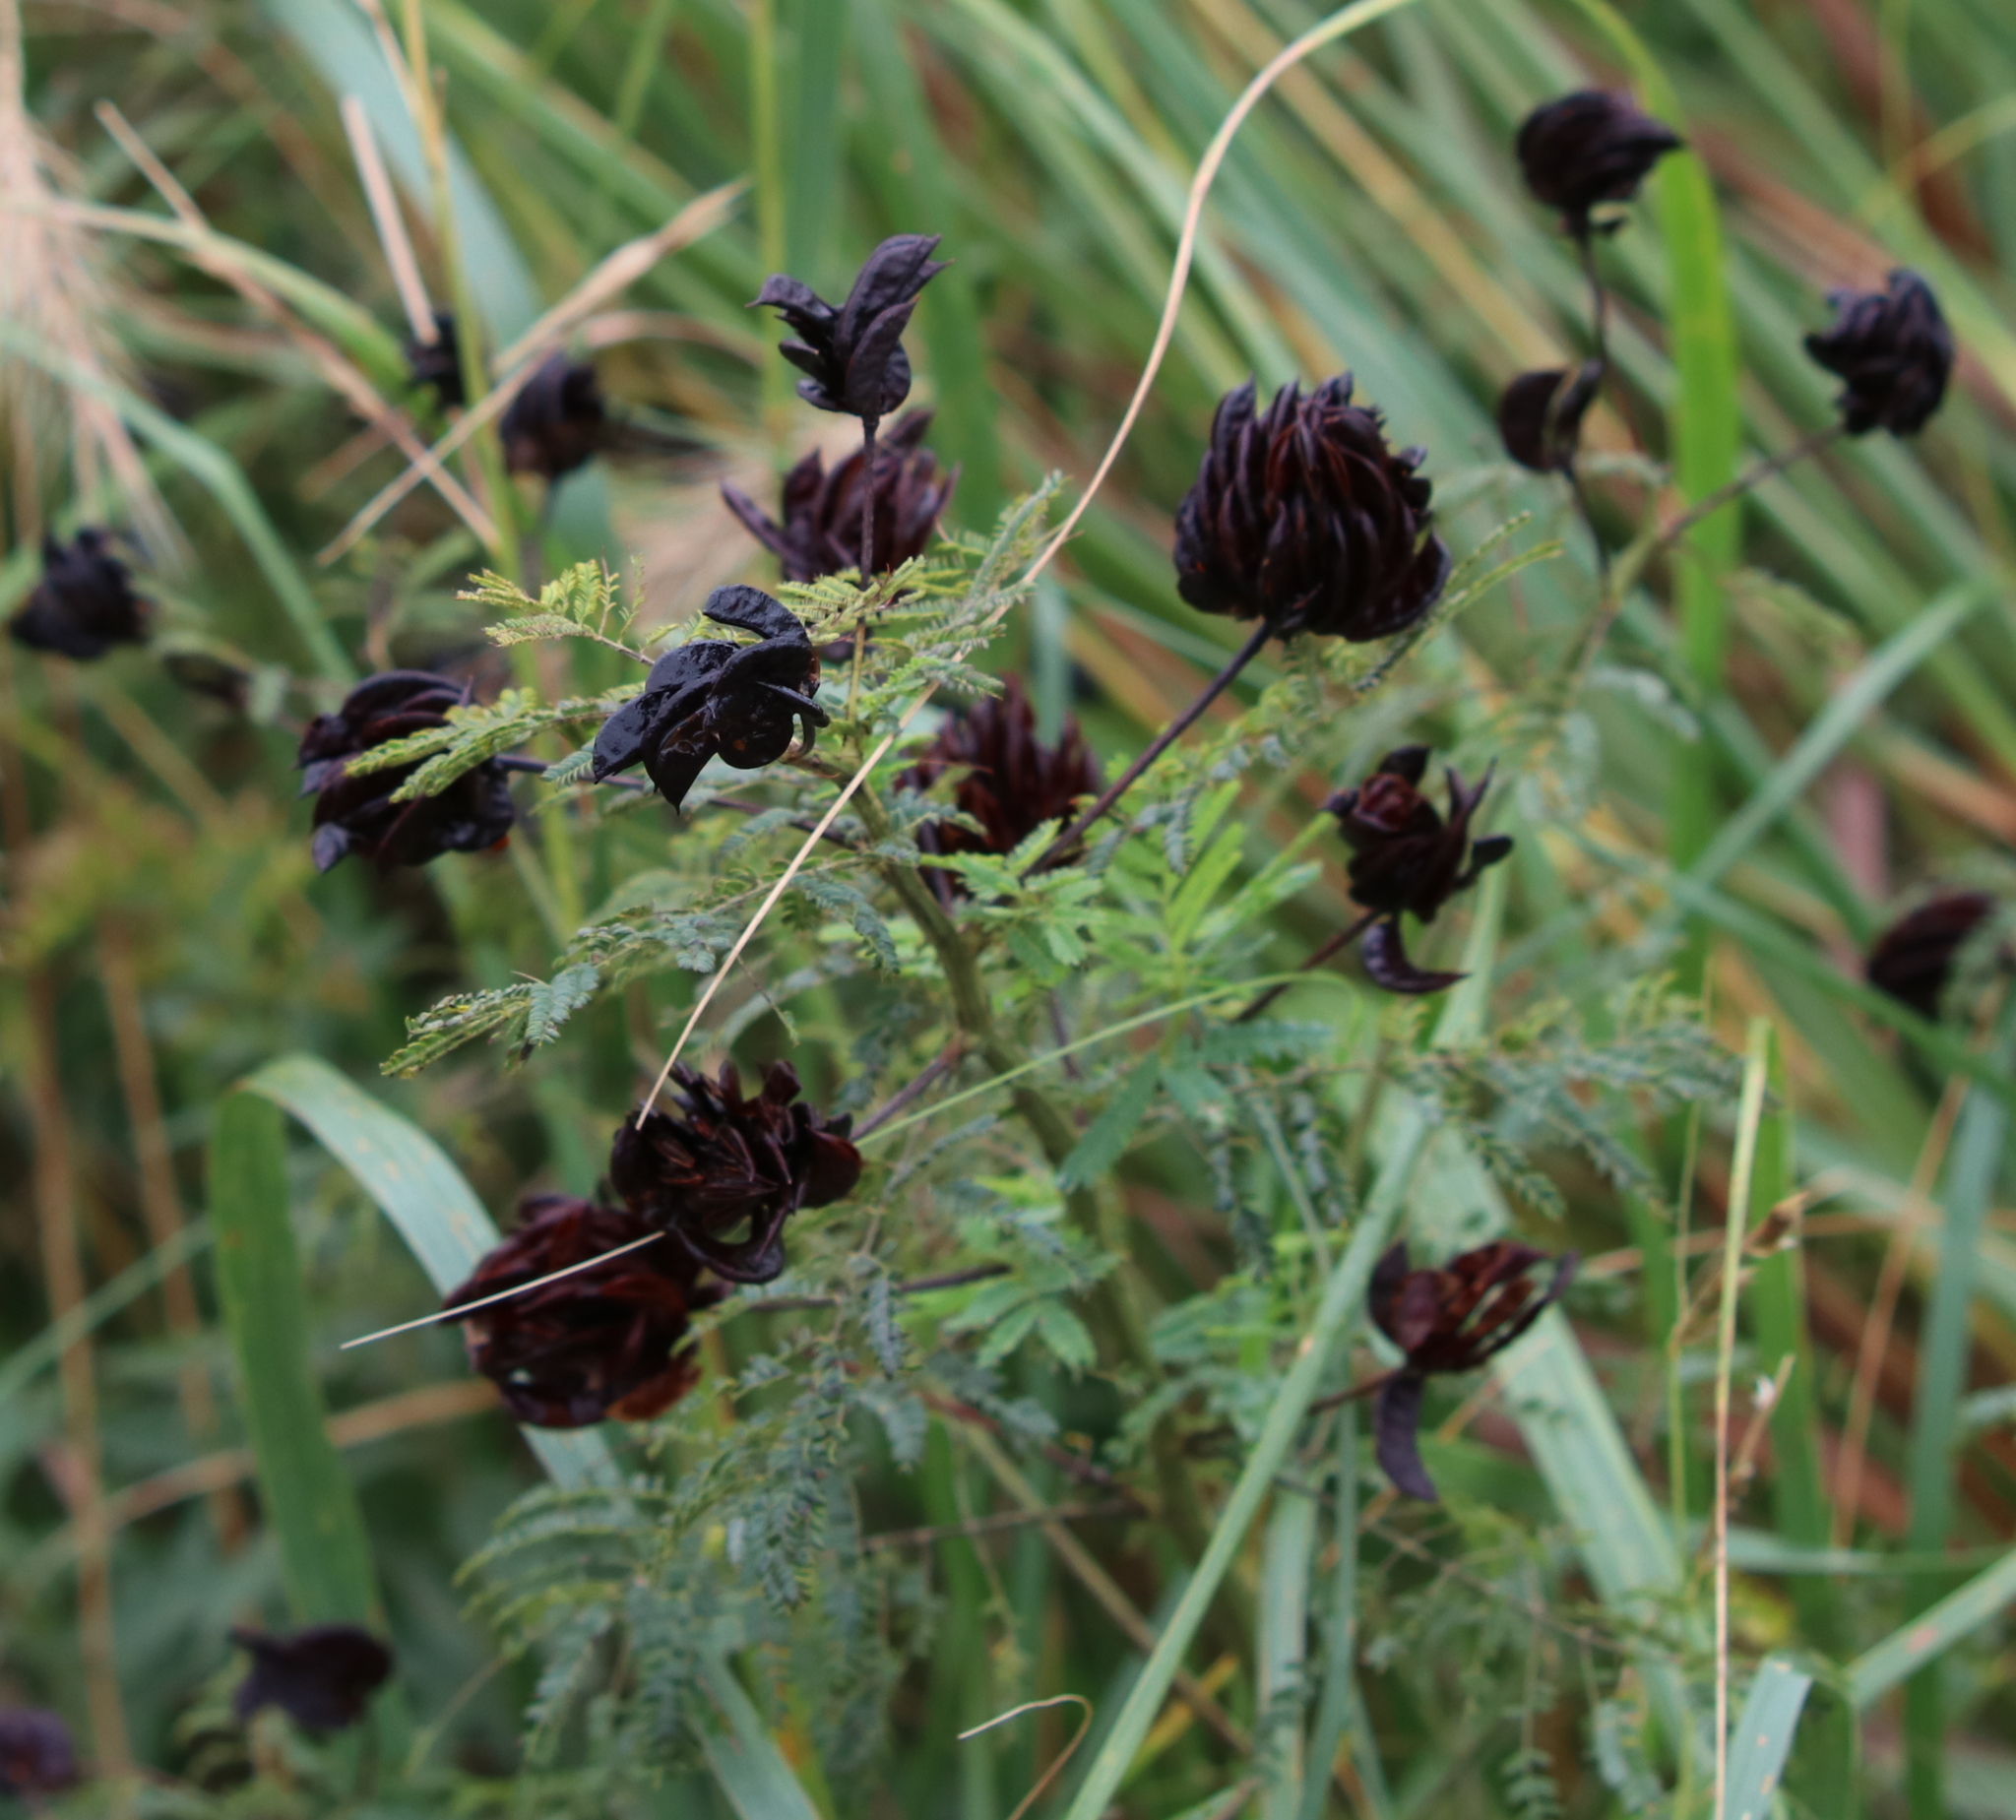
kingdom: Plantae
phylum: Tracheophyta
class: Magnoliopsida
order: Fabales
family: Fabaceae
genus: Desmanthus
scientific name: Desmanthus illinoensis
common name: Illinois bundle-flower
